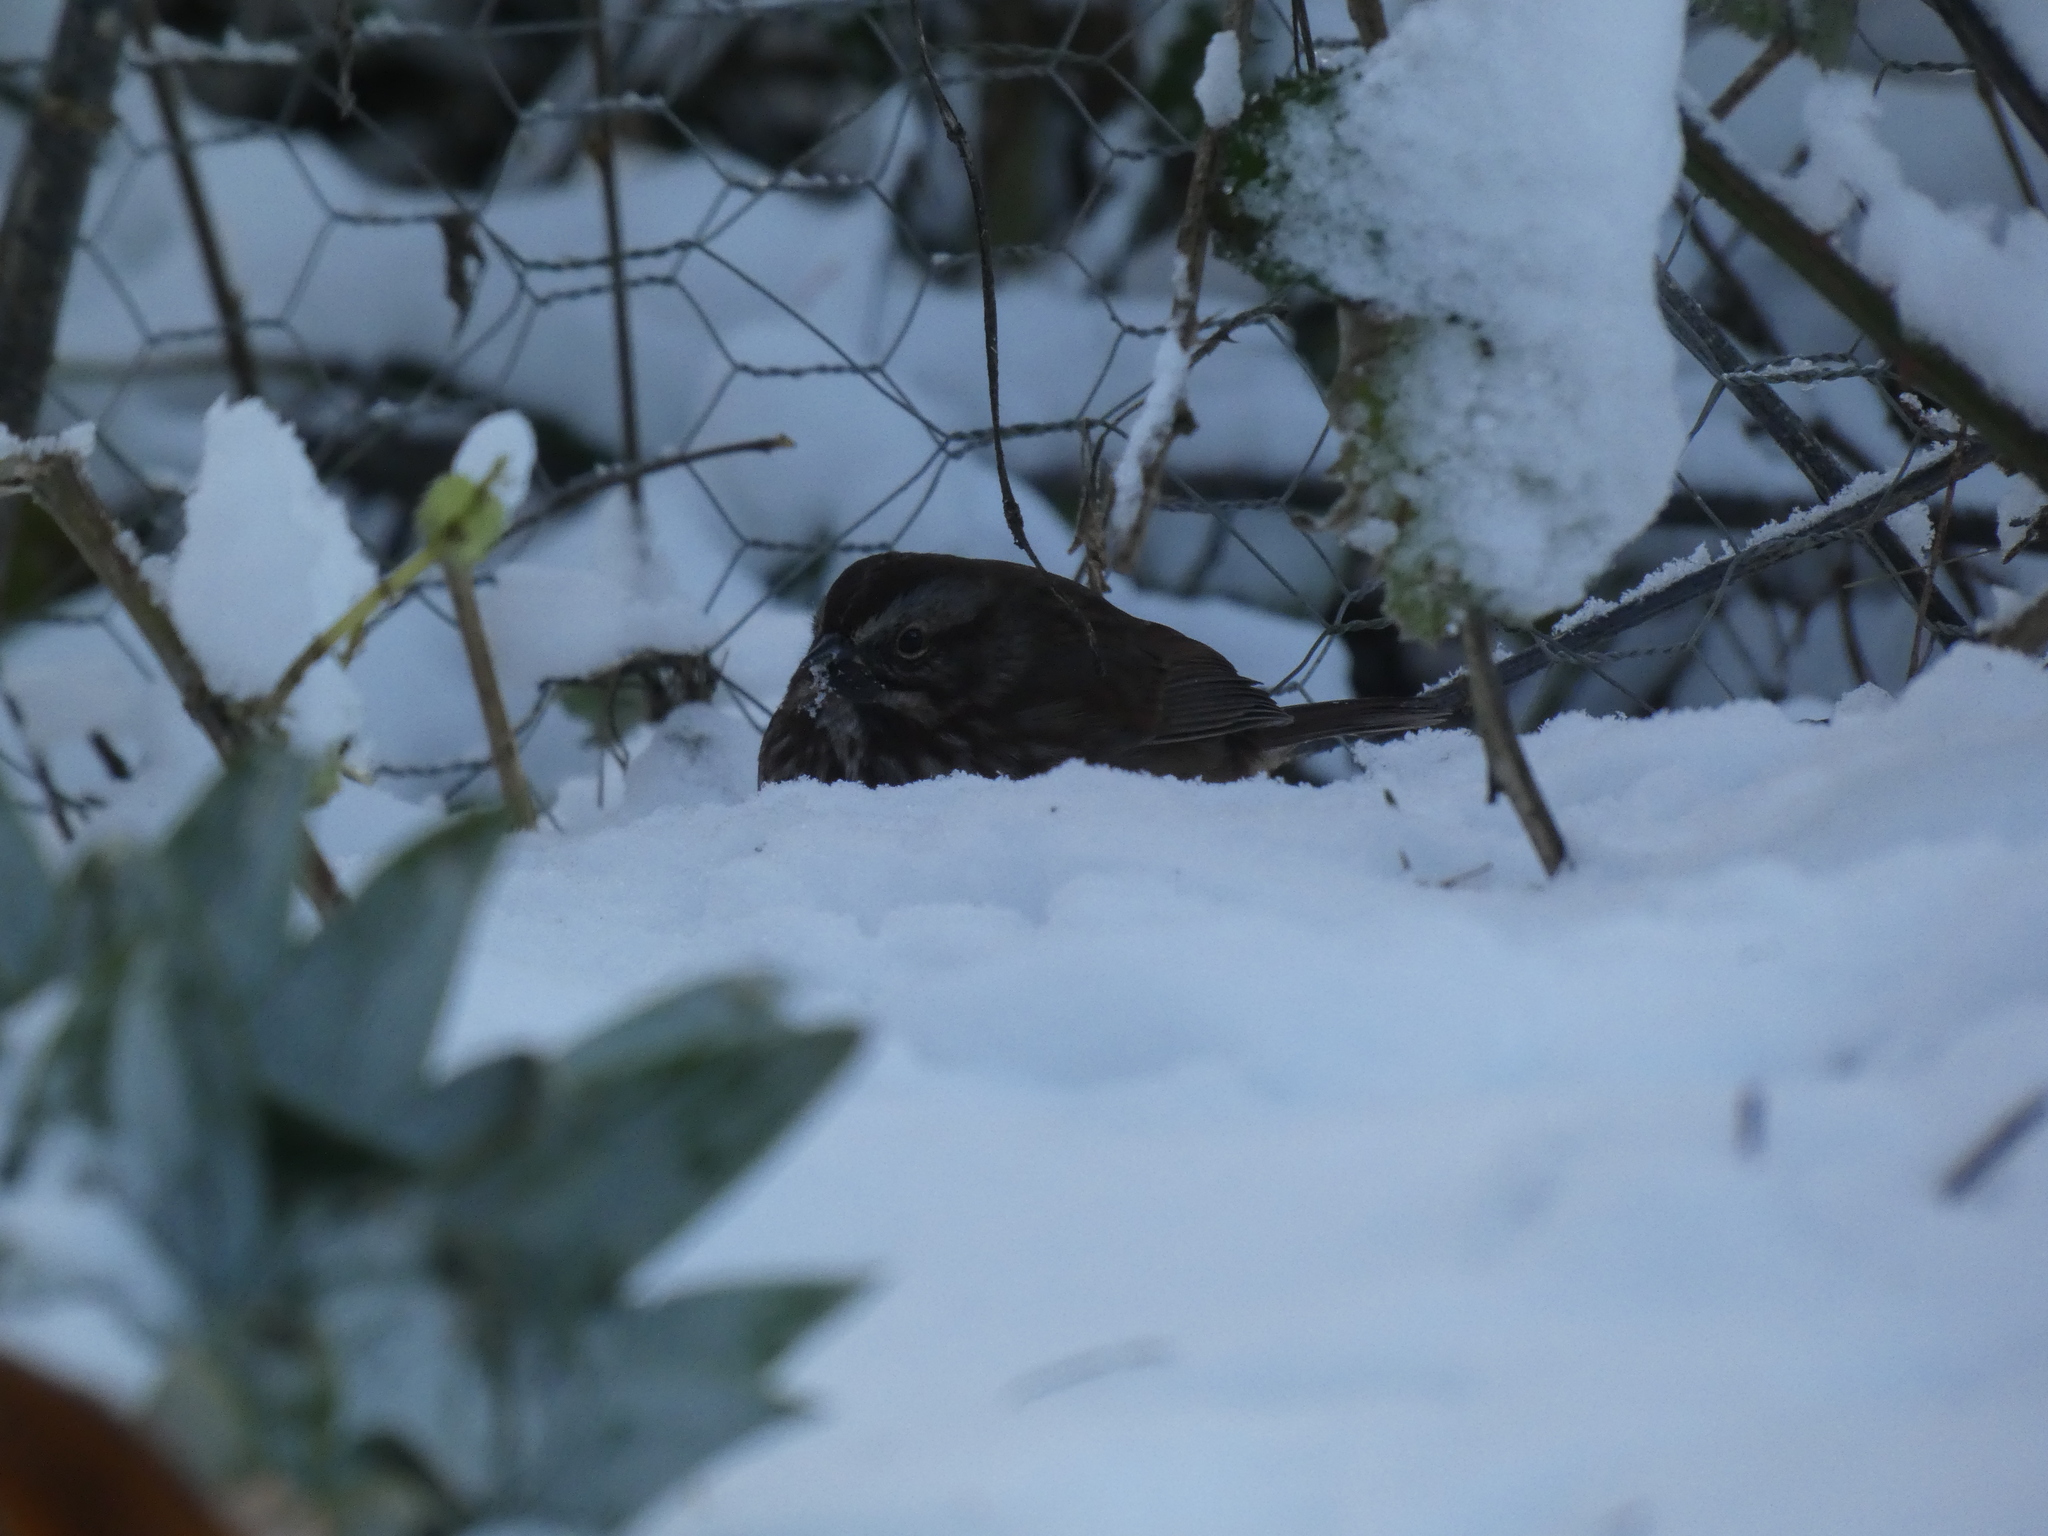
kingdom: Animalia
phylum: Chordata
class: Aves
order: Passeriformes
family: Passerellidae
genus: Melospiza
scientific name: Melospiza melodia
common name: Song sparrow
